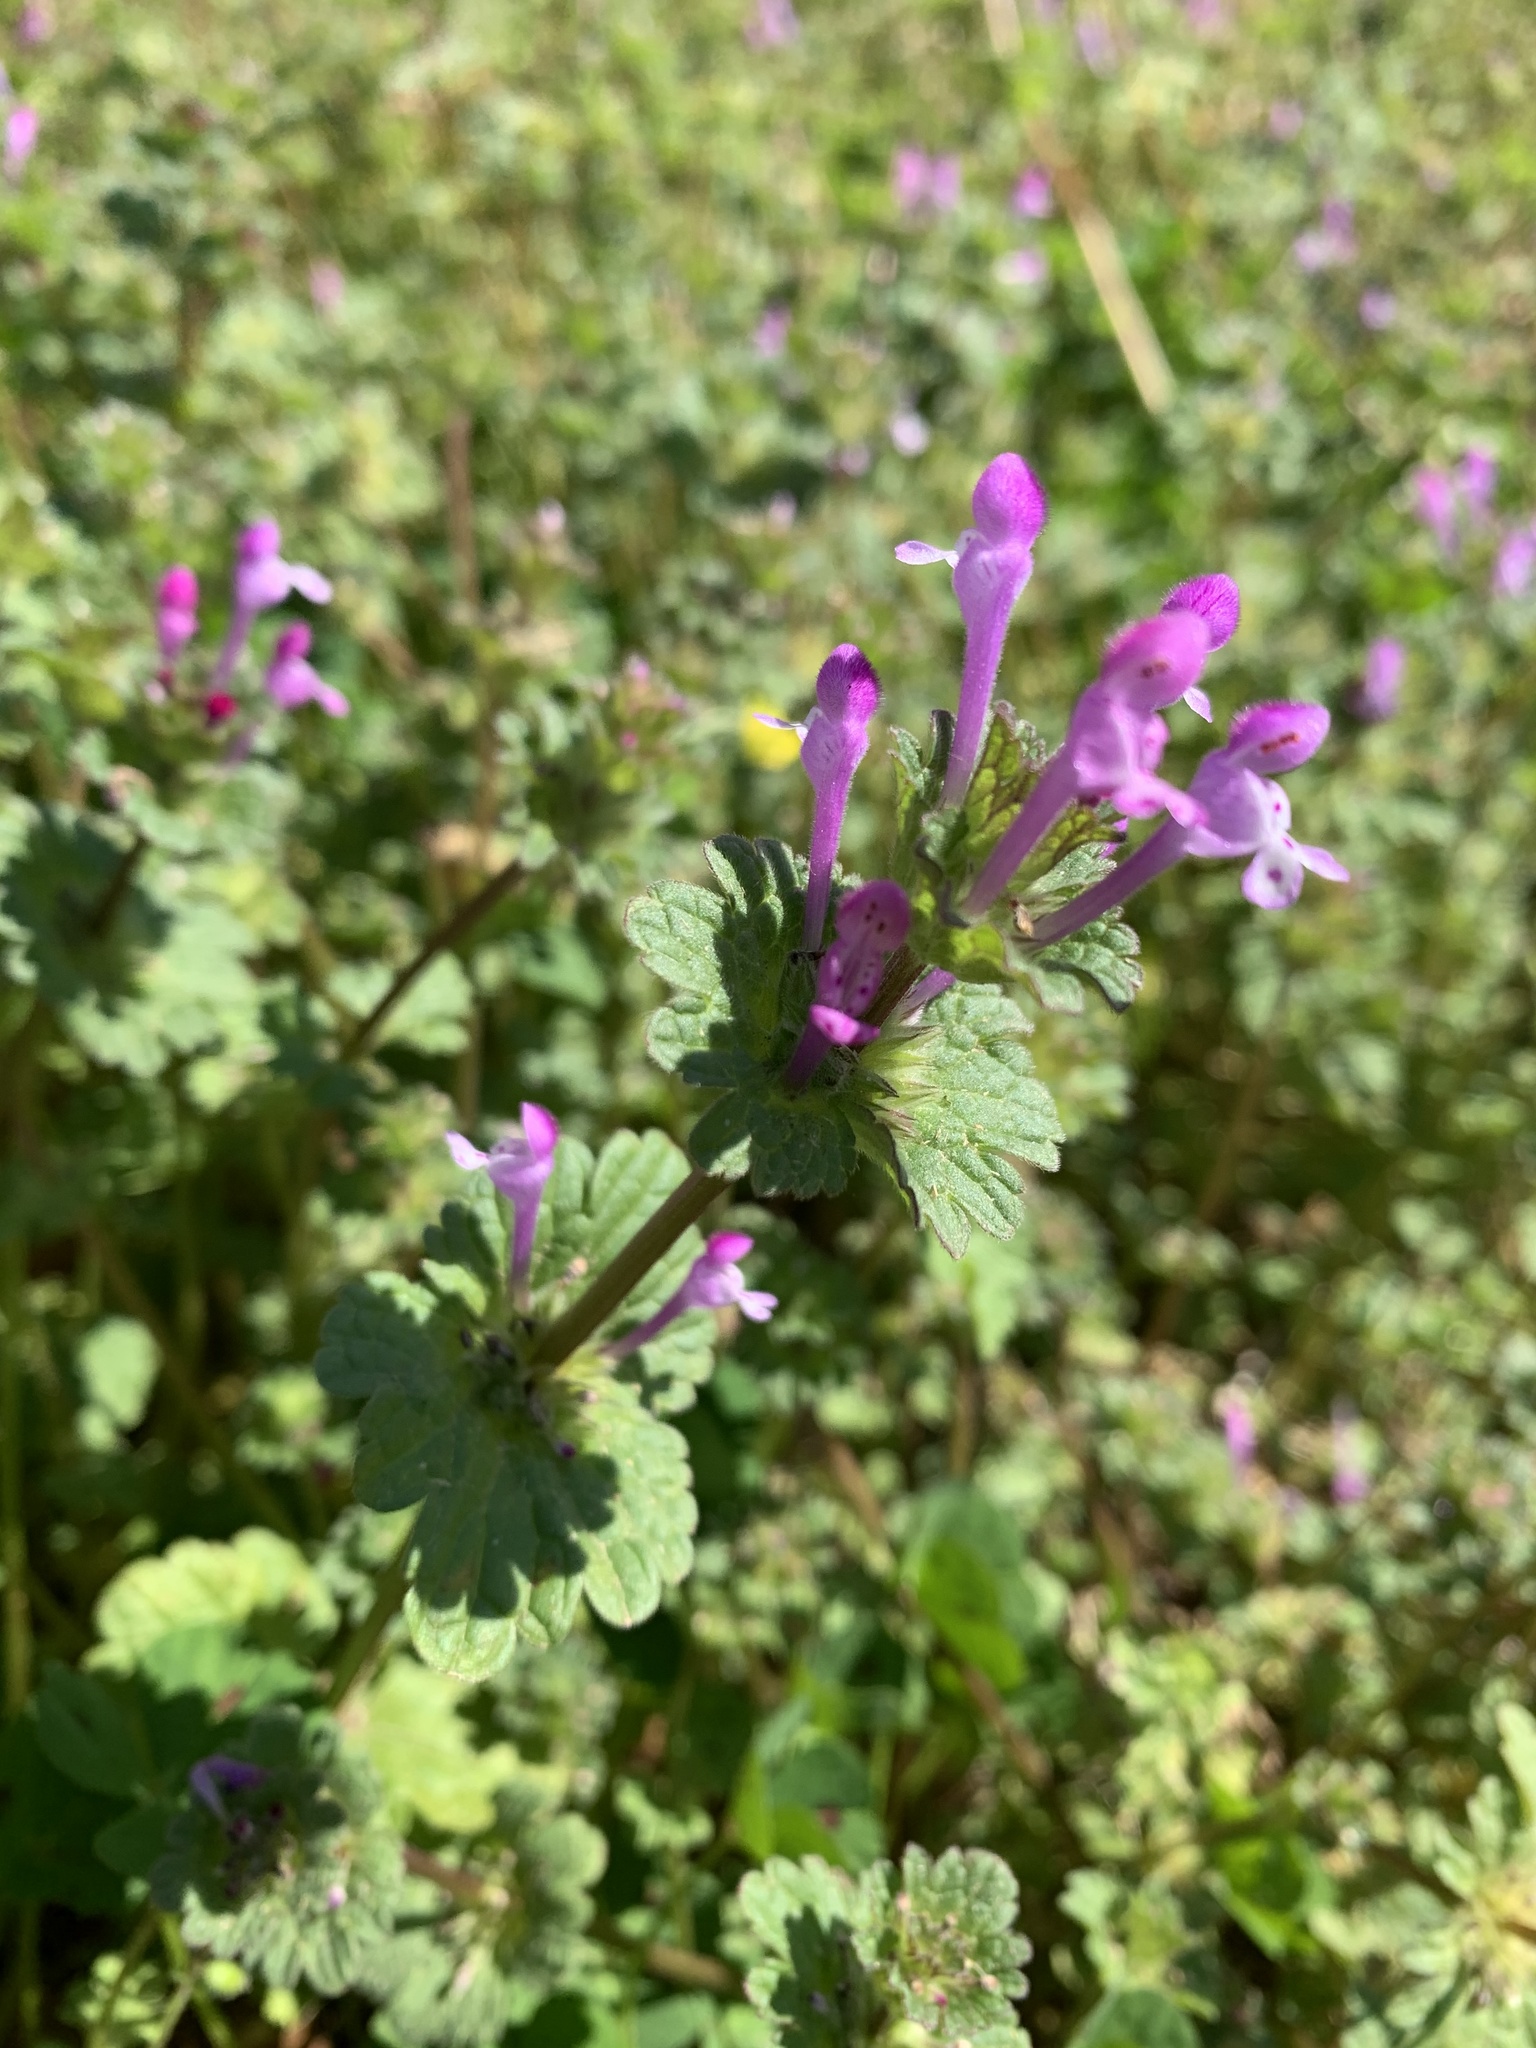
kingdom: Plantae
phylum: Tracheophyta
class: Magnoliopsida
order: Lamiales
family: Lamiaceae
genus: Lamium
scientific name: Lamium amplexicaule
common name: Henbit dead-nettle
